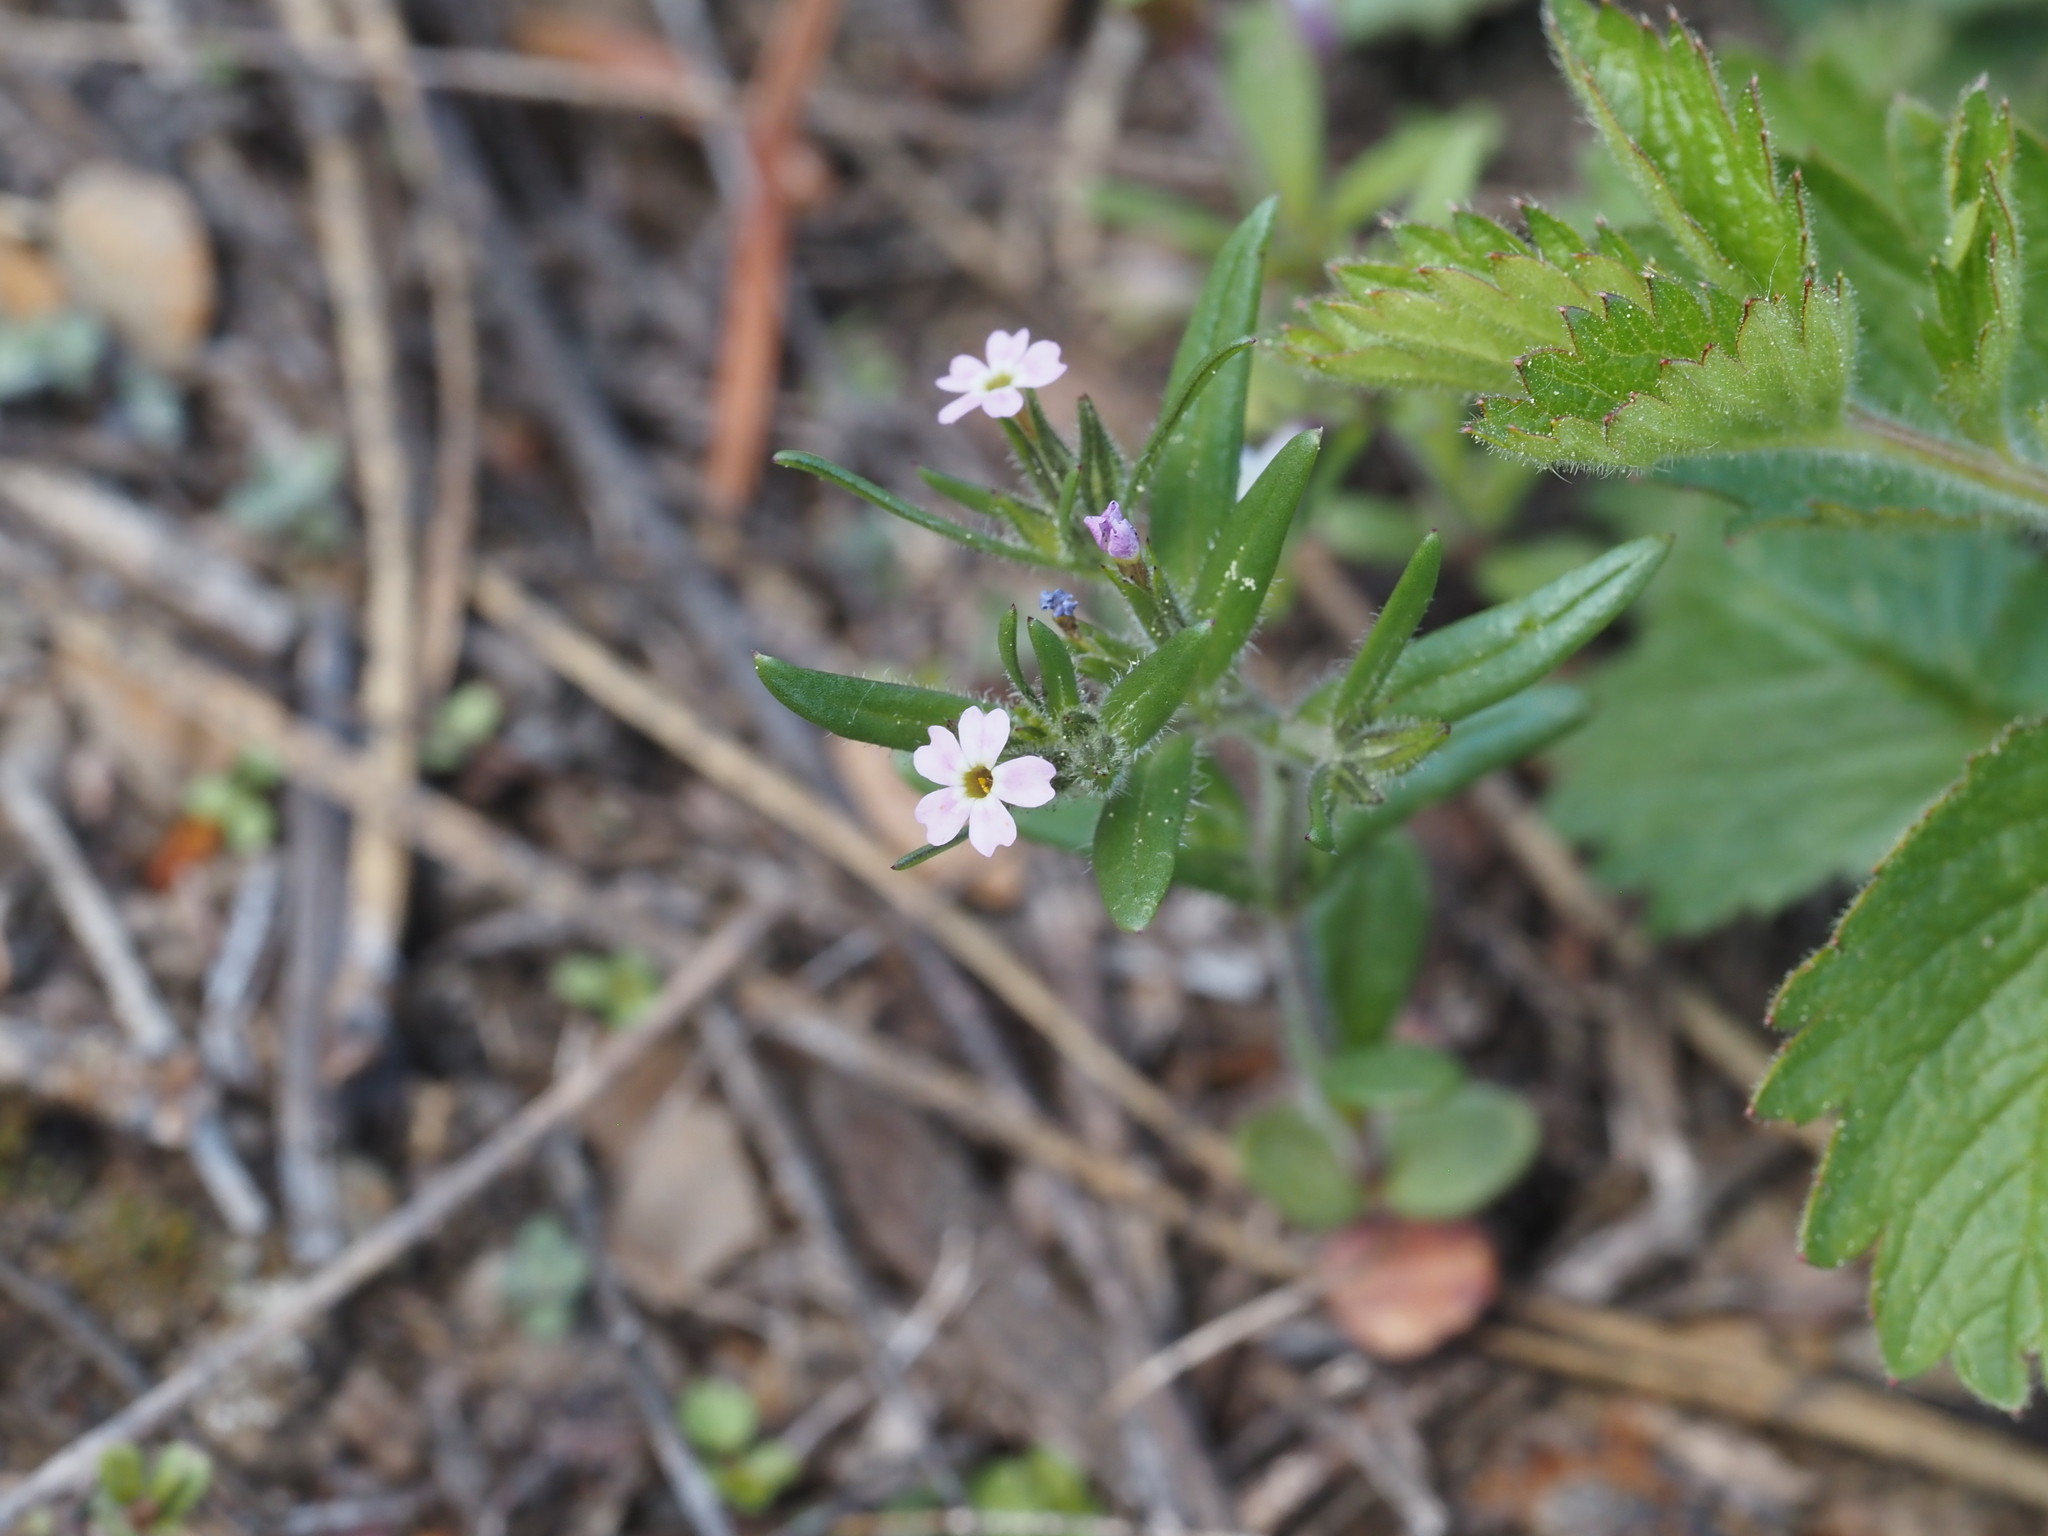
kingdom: Plantae
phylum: Tracheophyta
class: Magnoliopsida
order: Ericales
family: Polemoniaceae
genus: Phlox
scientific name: Phlox gracilis
